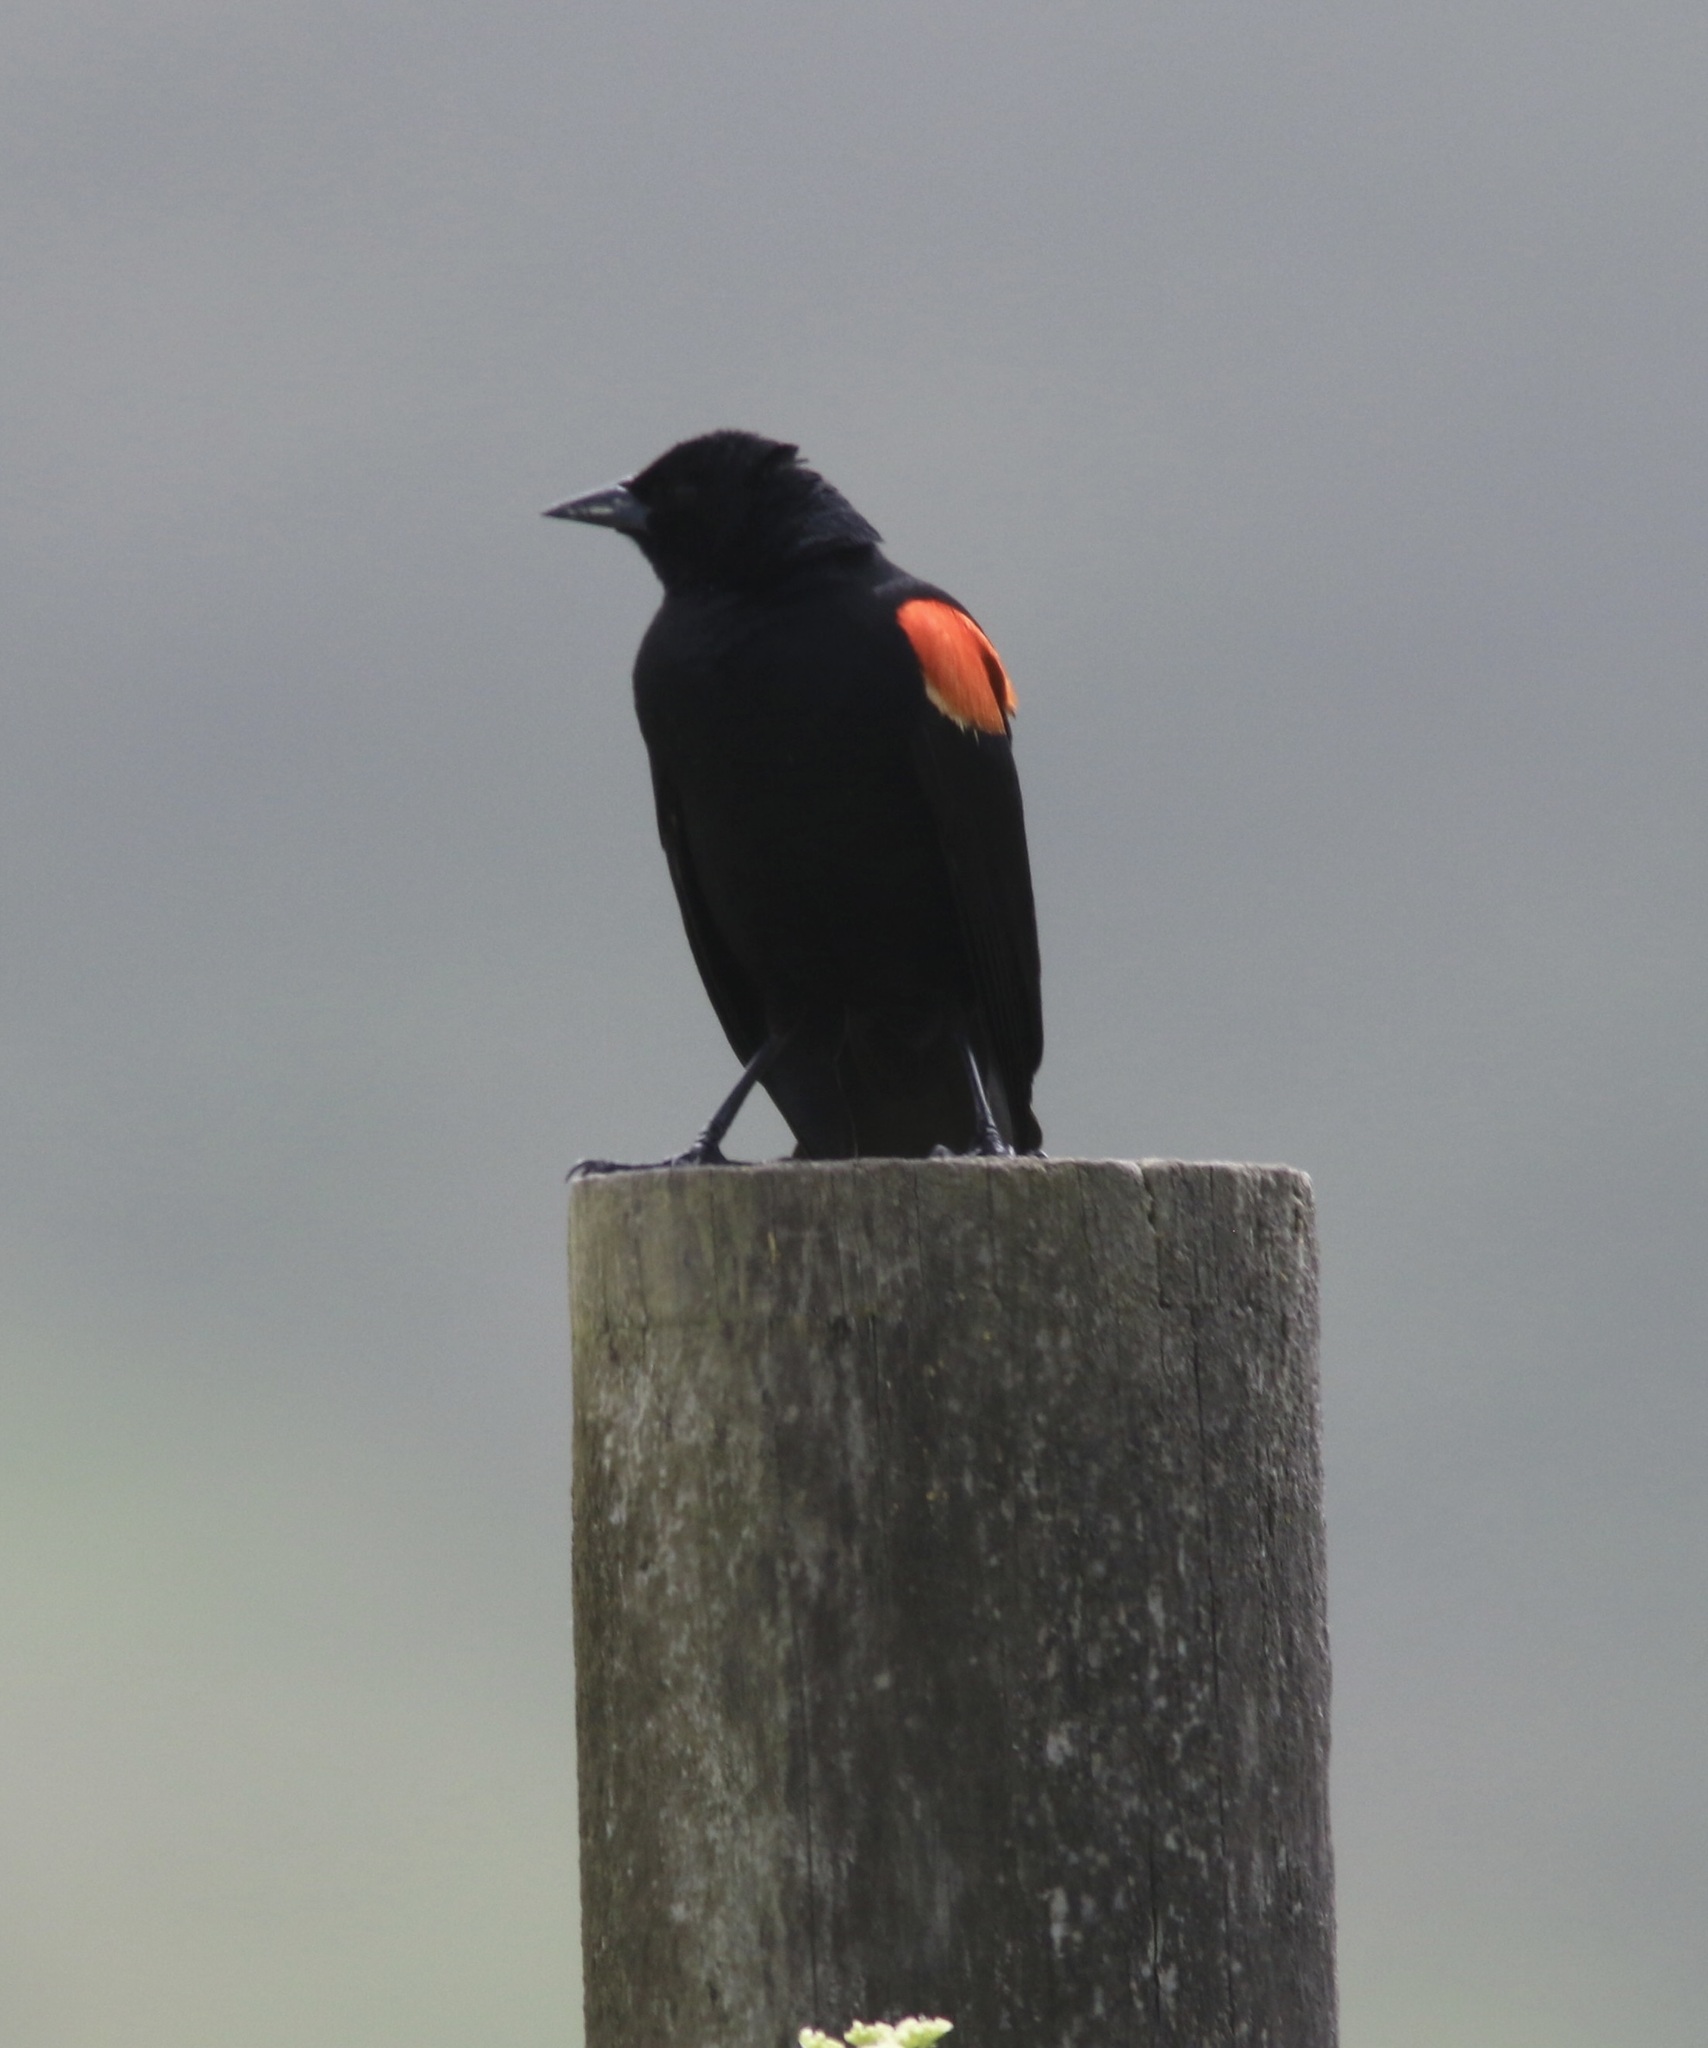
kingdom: Animalia
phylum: Chordata
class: Aves
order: Passeriformes
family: Icteridae
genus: Agelaius
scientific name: Agelaius phoeniceus
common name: Red-winged blackbird
